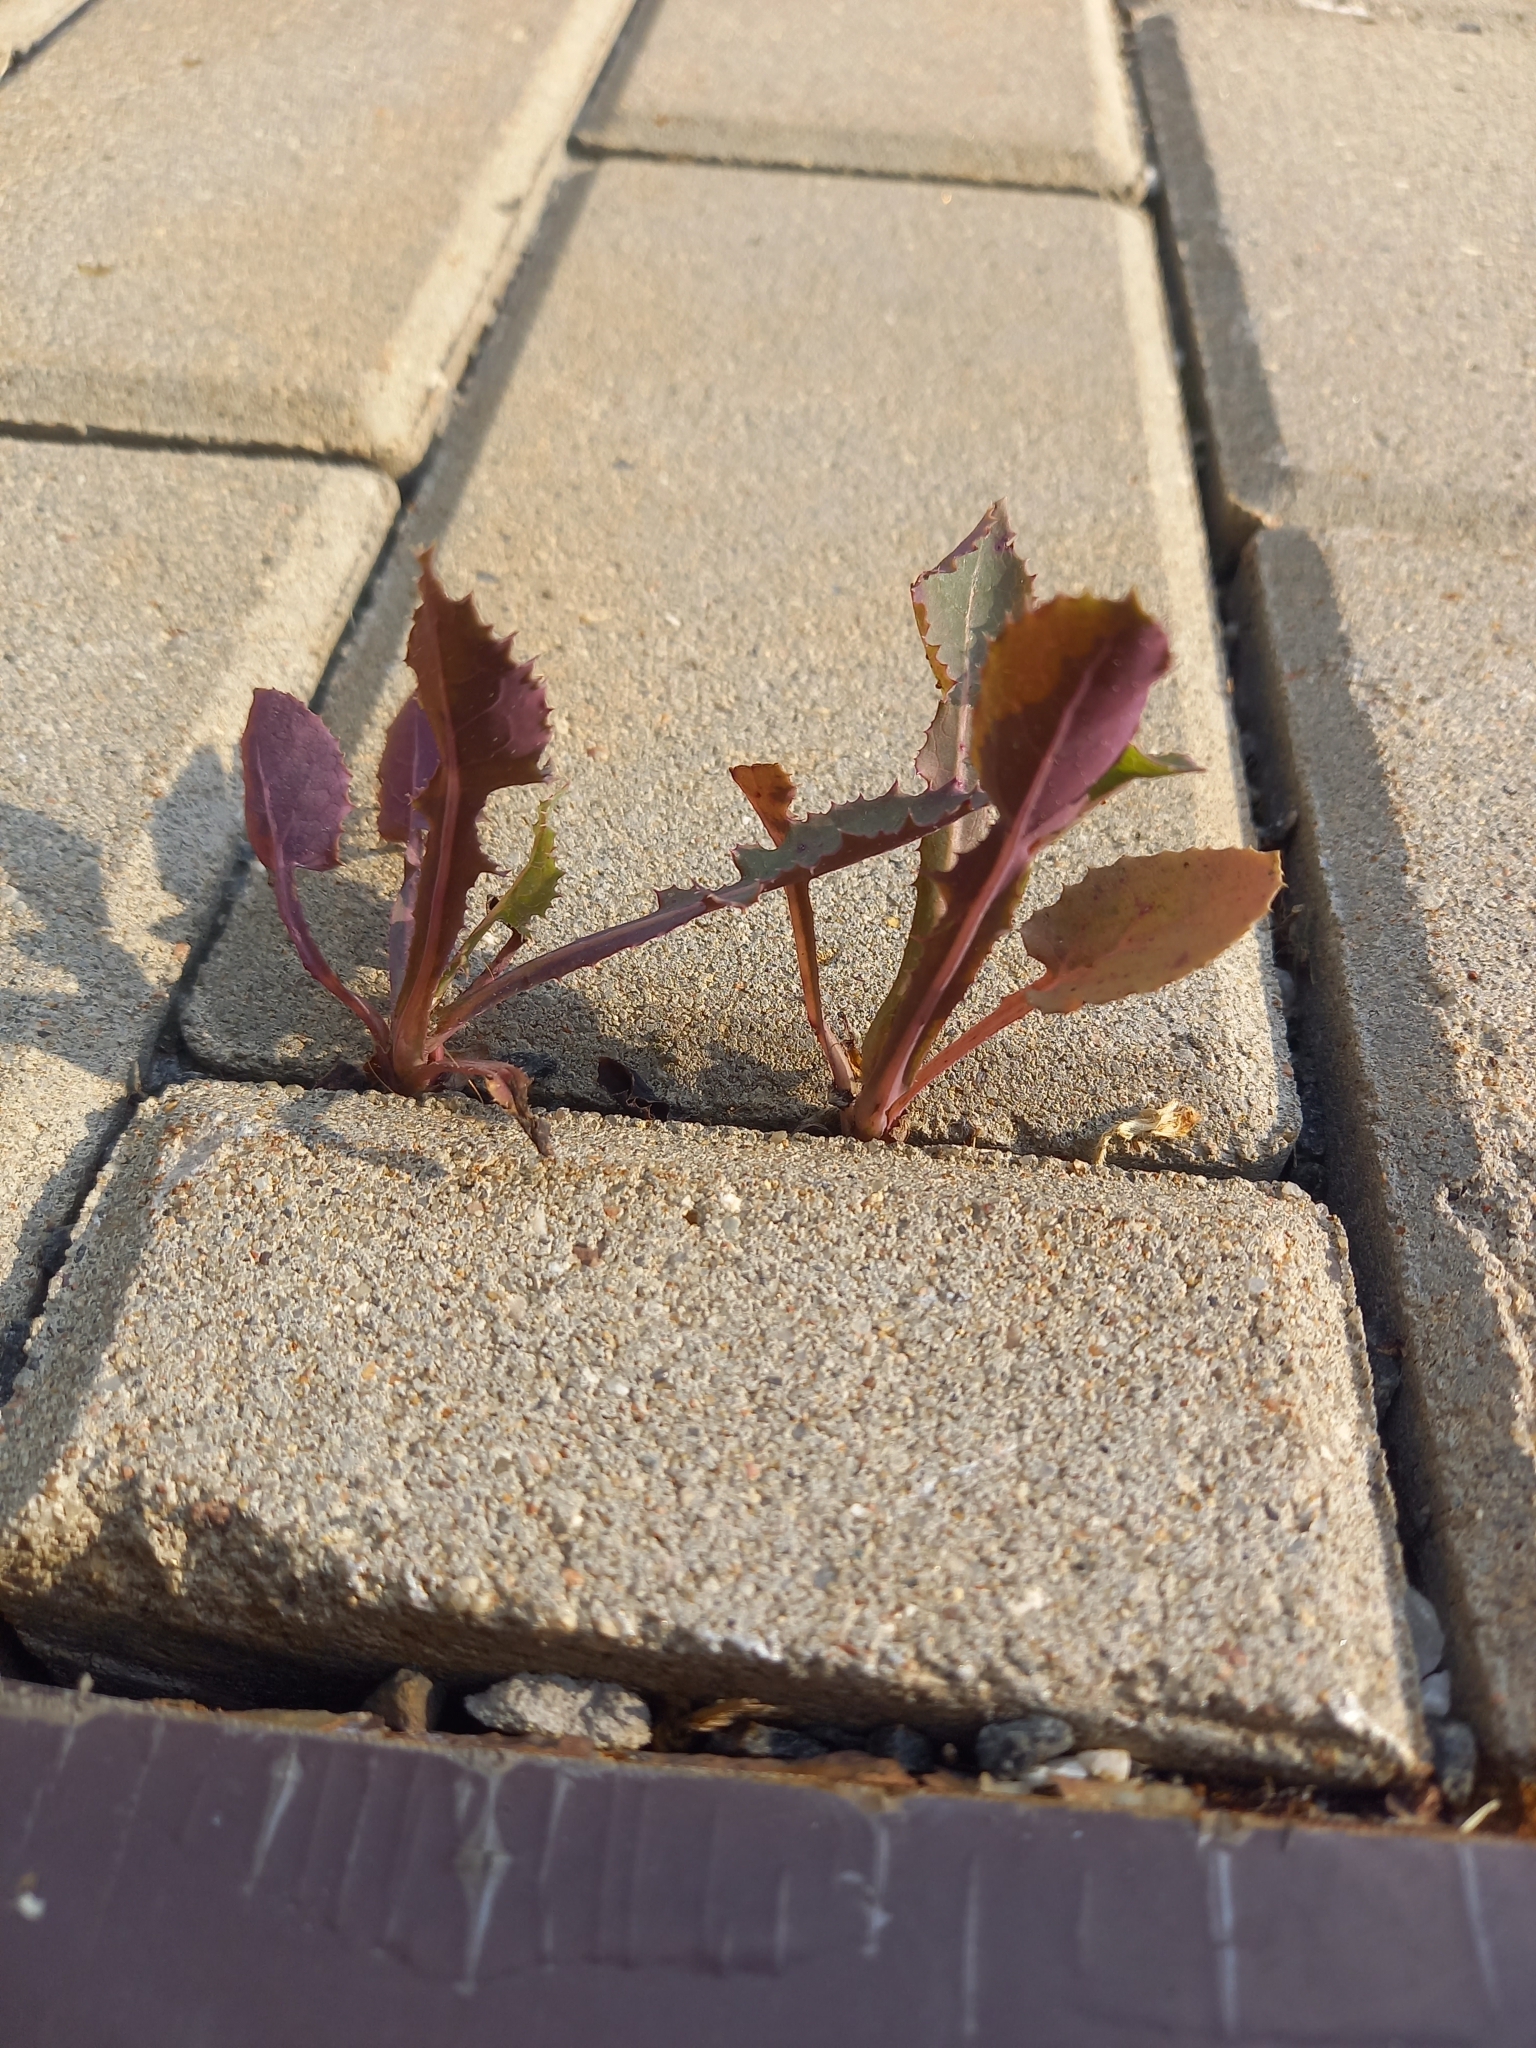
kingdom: Plantae
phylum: Tracheophyta
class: Magnoliopsida
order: Asterales
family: Asteraceae
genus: Sonchus
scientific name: Sonchus oleraceus
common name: Common sowthistle
